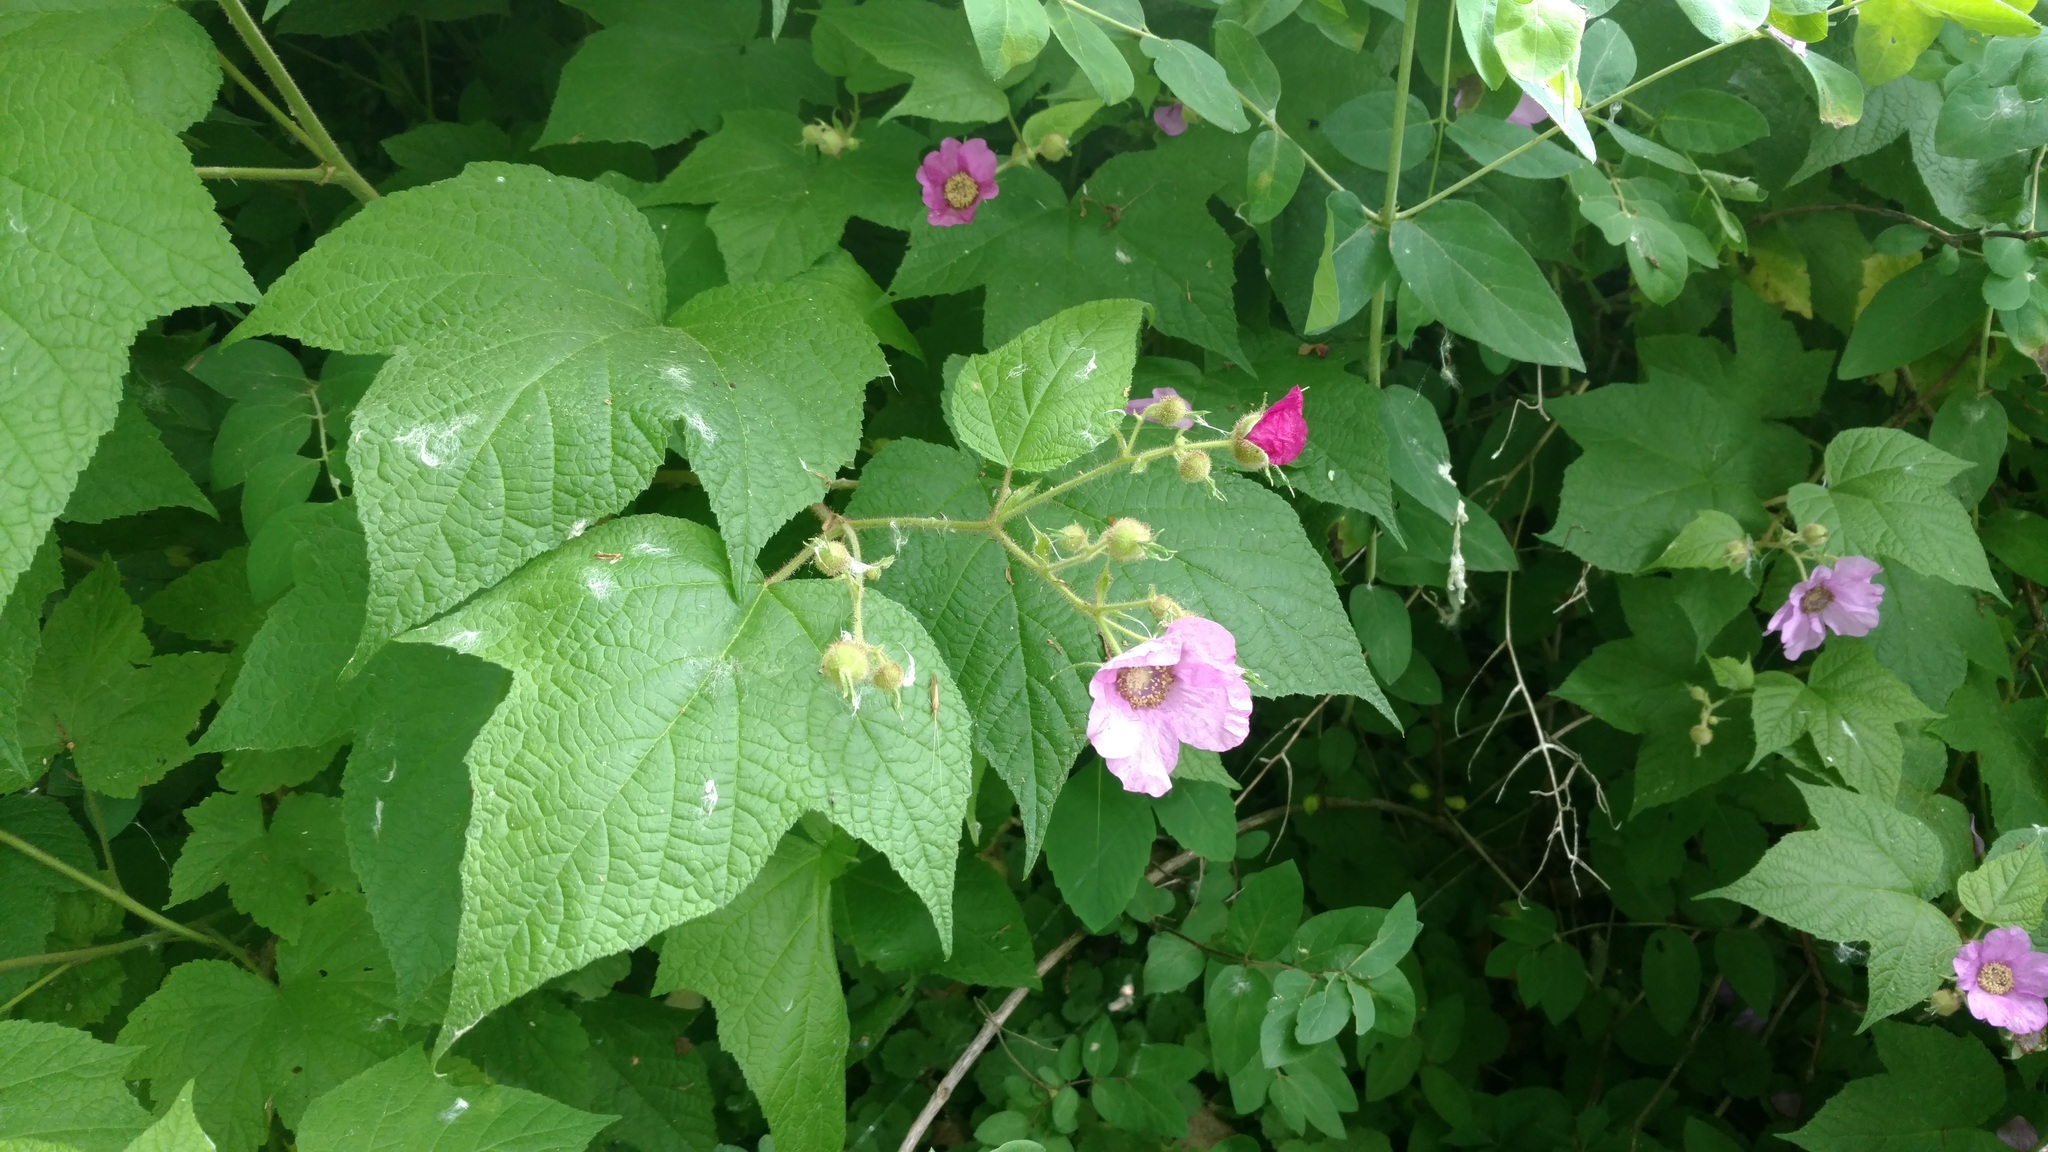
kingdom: Plantae
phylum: Tracheophyta
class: Magnoliopsida
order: Rosales
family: Rosaceae
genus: Rubus
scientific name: Rubus odoratus
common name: Purple-flowered raspberry
